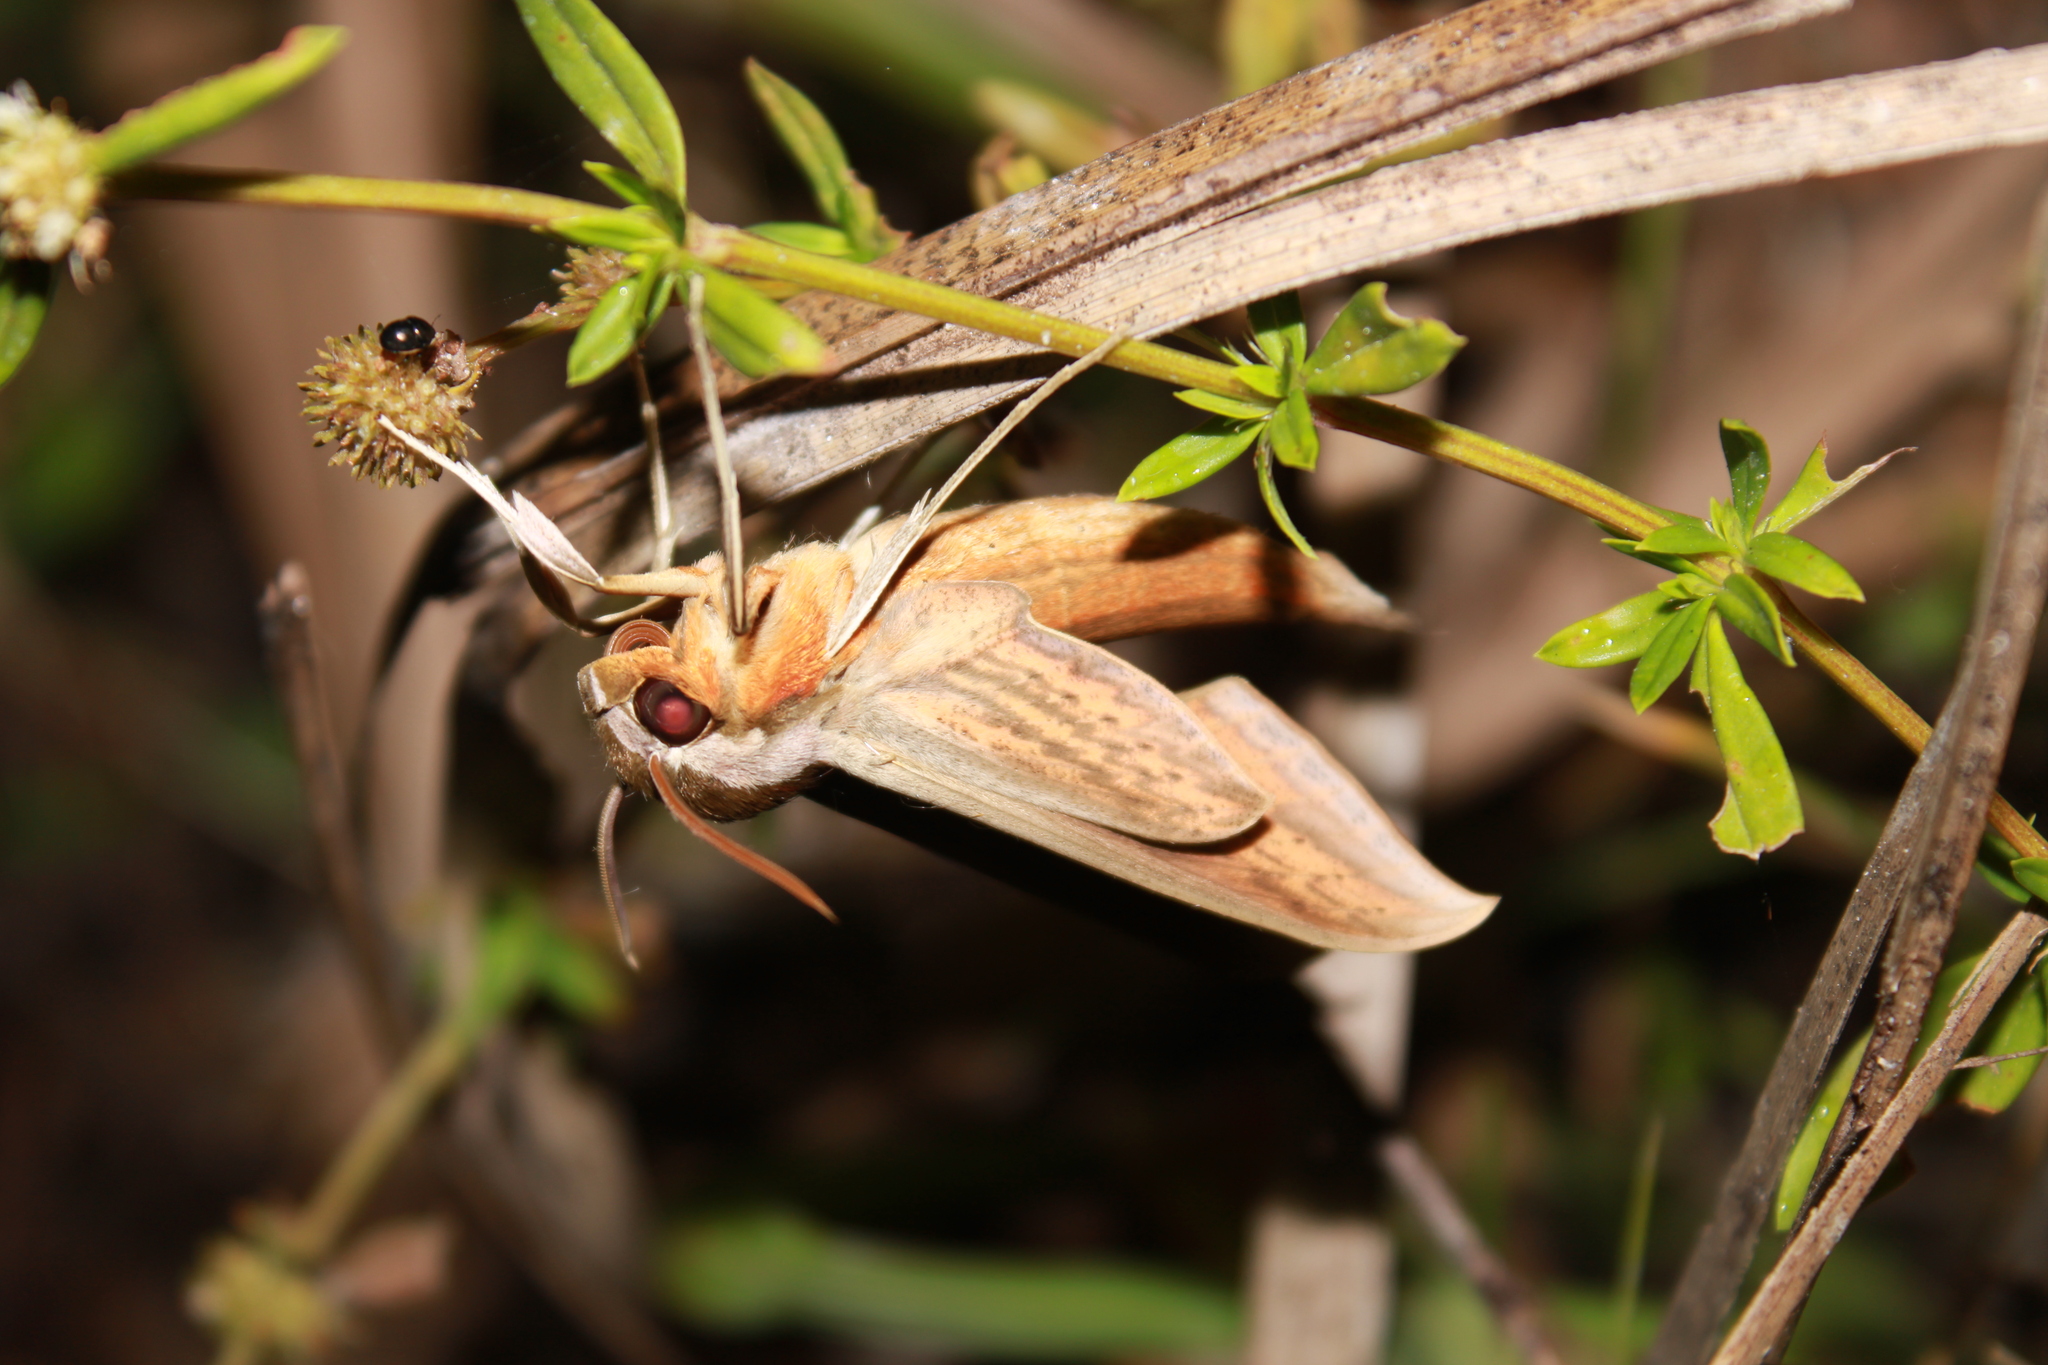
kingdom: Animalia
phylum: Arthropoda
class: Insecta
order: Lepidoptera
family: Sphingidae
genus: Xylophanes
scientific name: Xylophanes tersa
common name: Tersa sphinx
